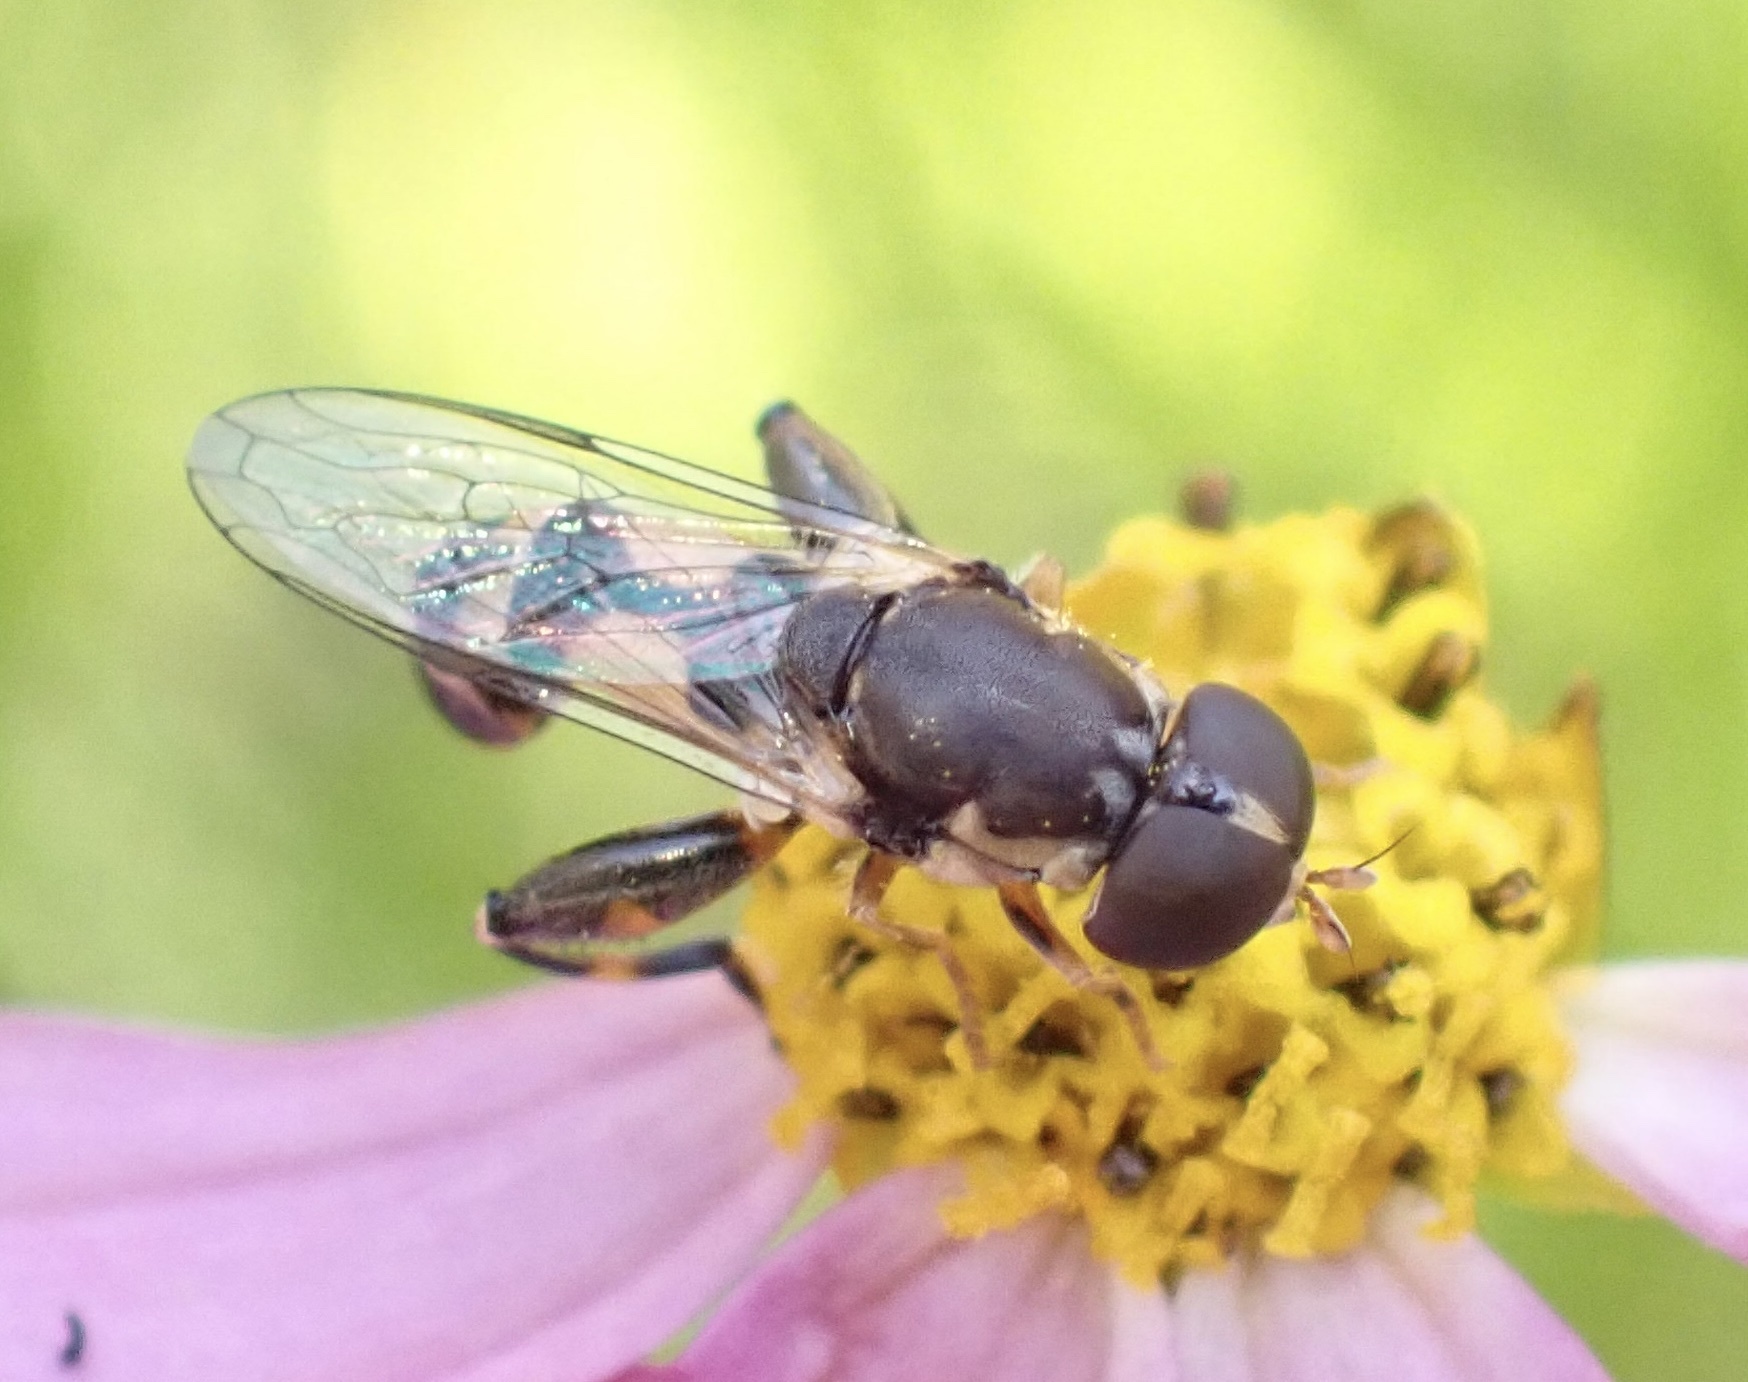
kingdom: Animalia
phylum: Arthropoda
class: Insecta
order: Diptera
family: Syrphidae
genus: Syritta
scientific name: Syritta pipiens
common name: Hover fly
